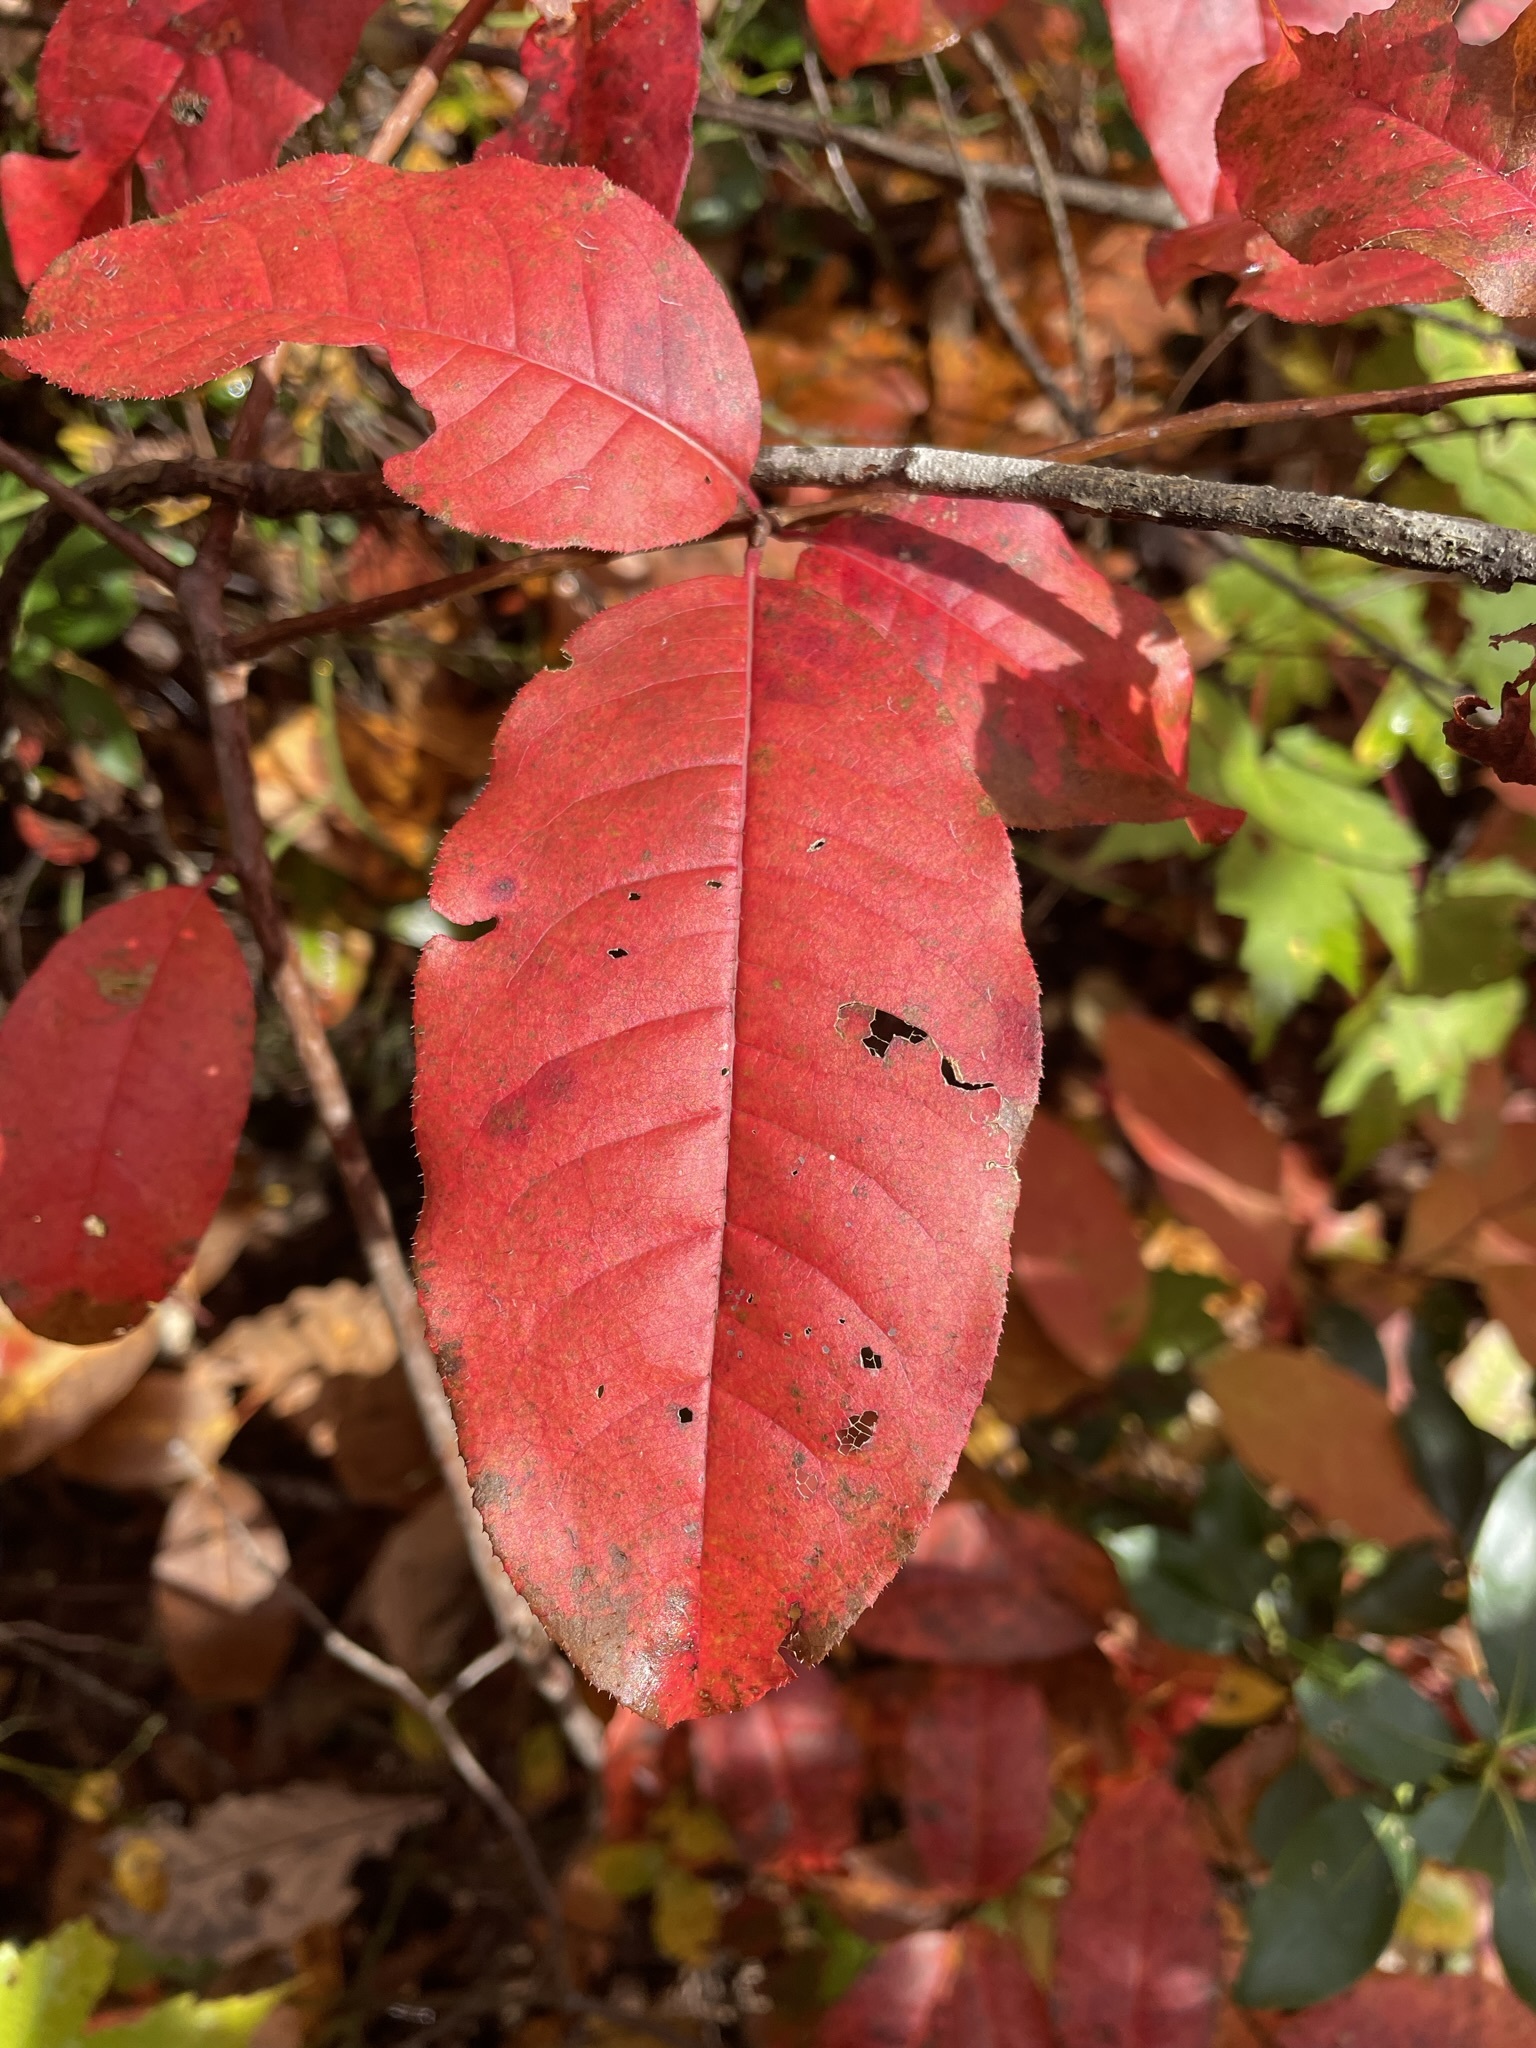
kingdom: Plantae
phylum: Tracheophyta
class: Magnoliopsida
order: Ericales
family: Ericaceae
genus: Oxydendrum
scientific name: Oxydendrum arboreum
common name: Sourwood
